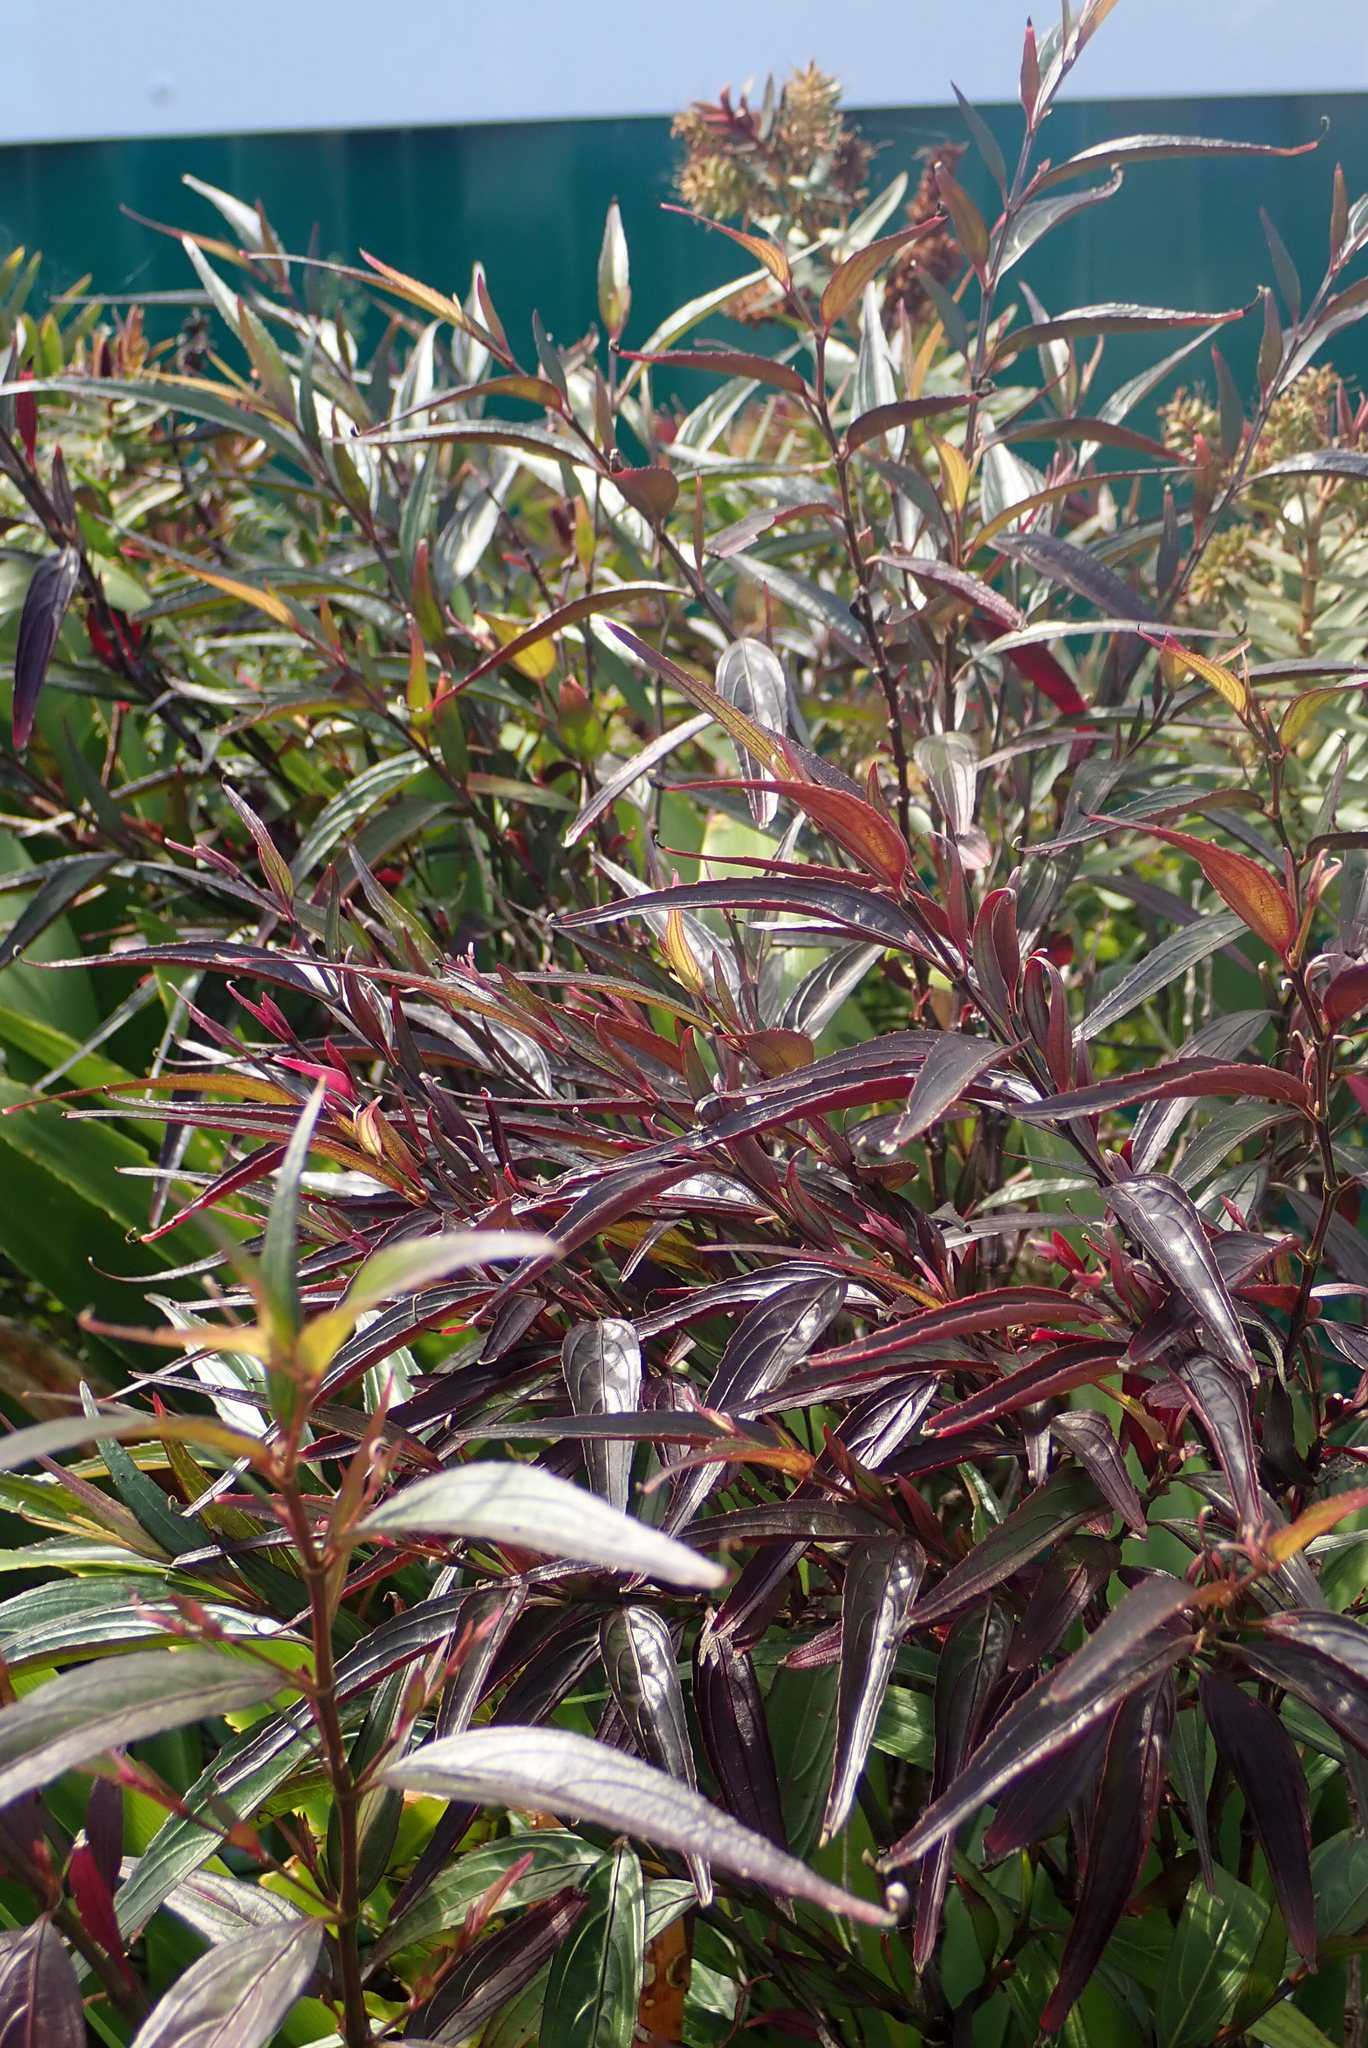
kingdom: Plantae
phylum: Tracheophyta
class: Magnoliopsida
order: Lamiales
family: Acanthaceae
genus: Strobilanthes
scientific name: Strobilanthes anisophylla
